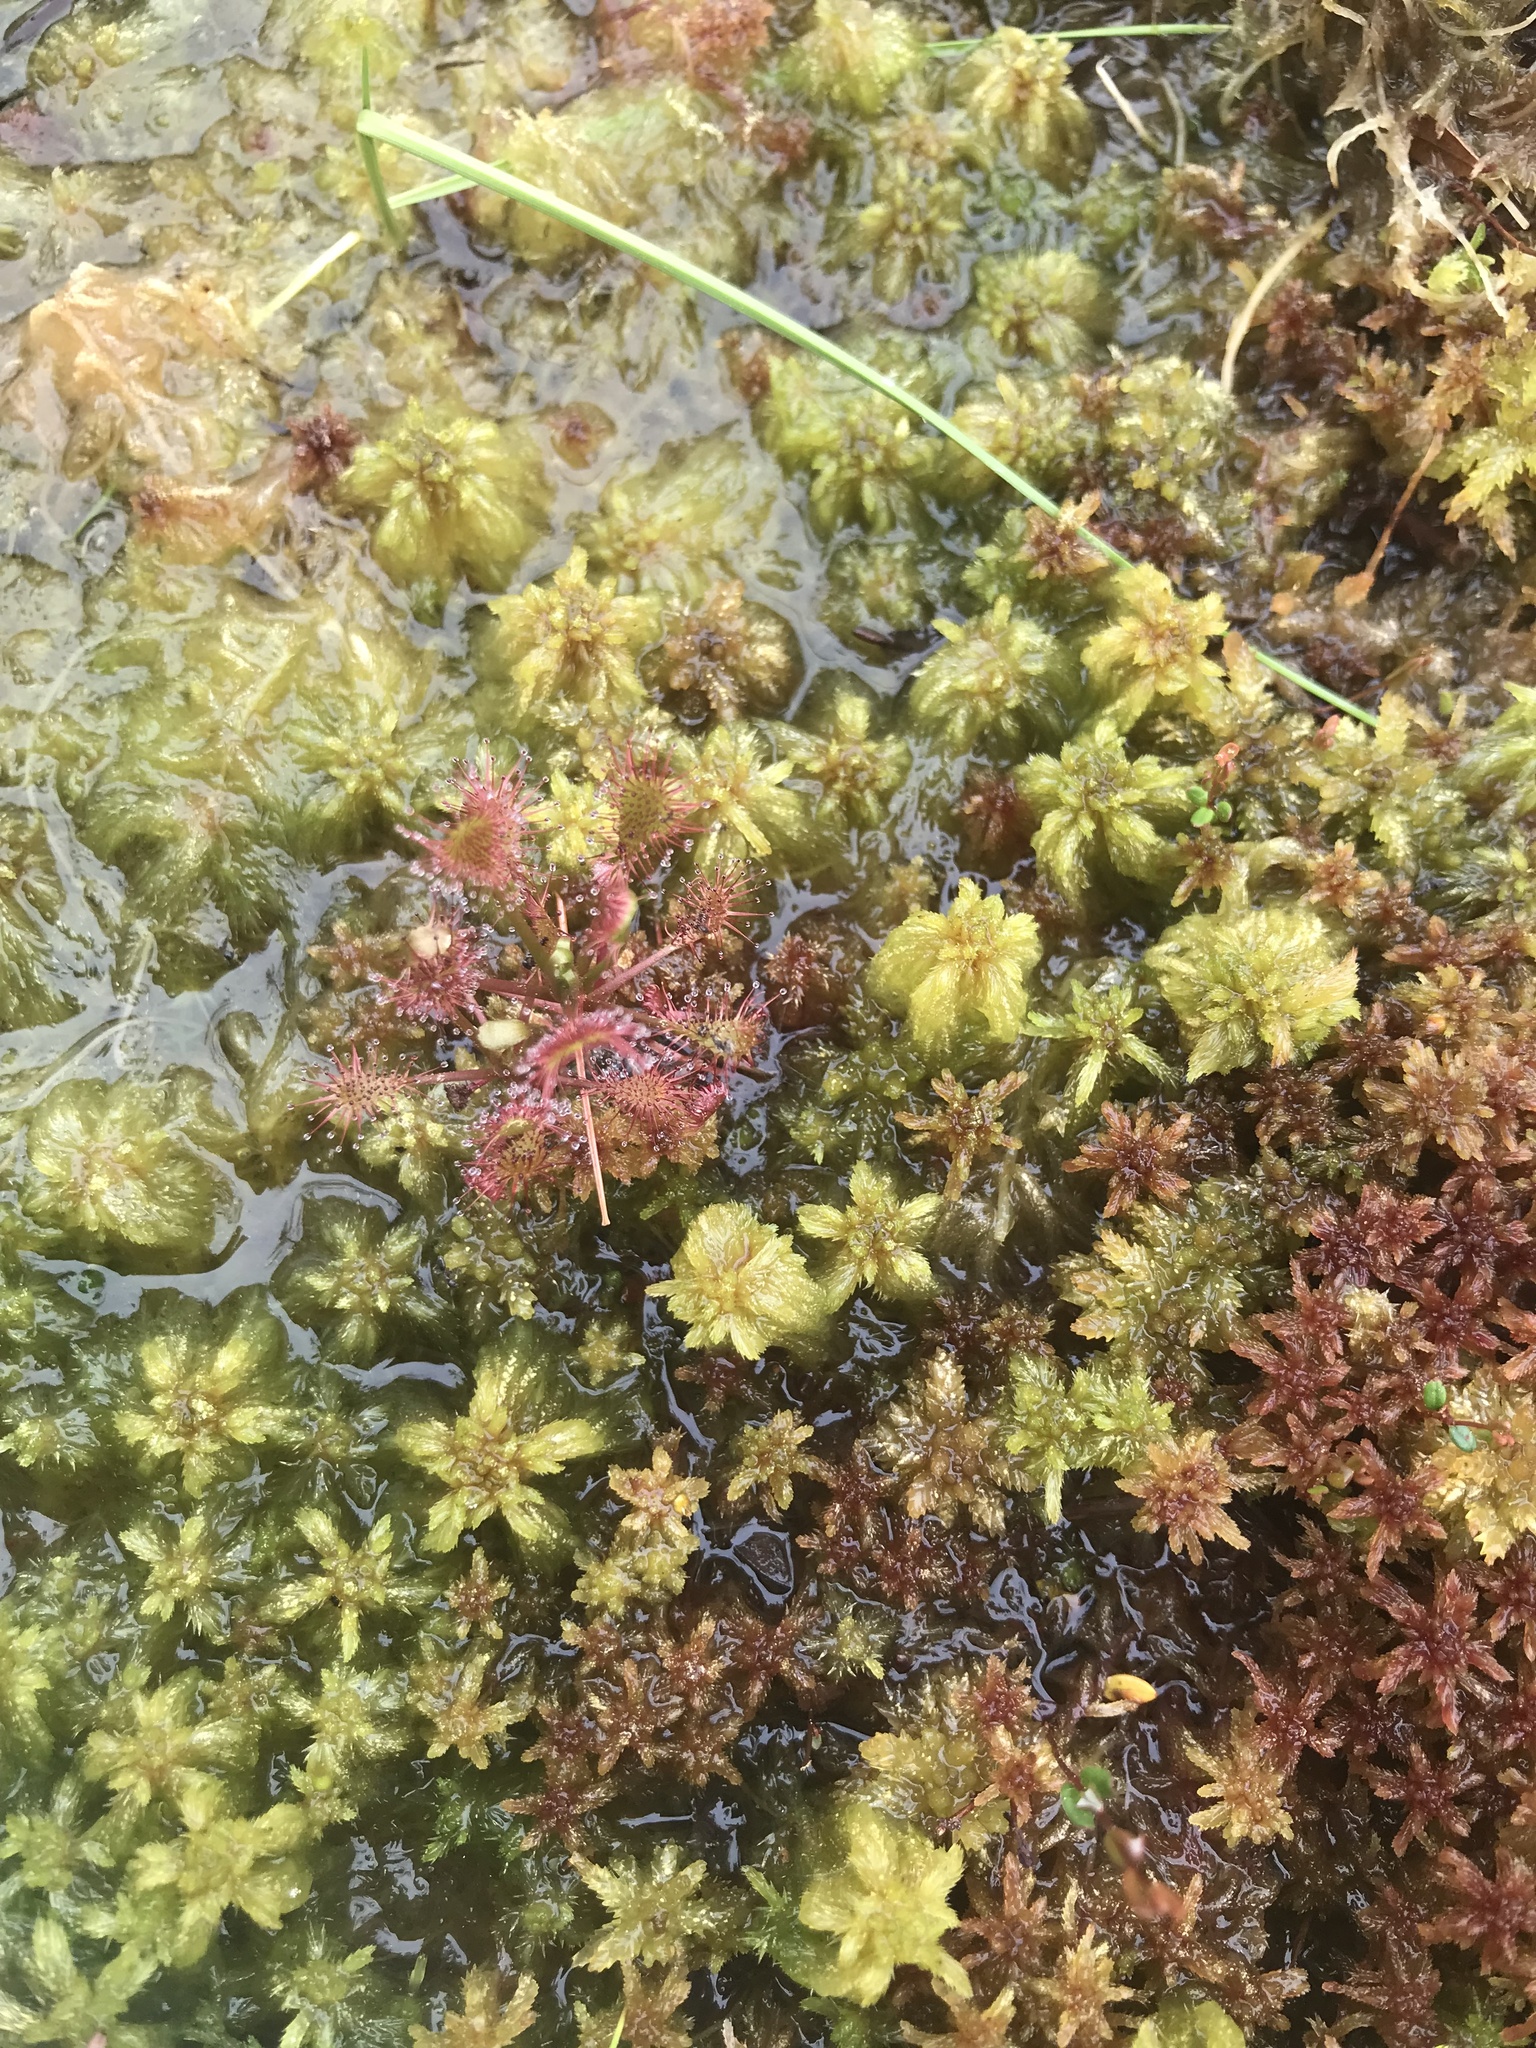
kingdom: Plantae
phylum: Tracheophyta
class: Magnoliopsida
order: Caryophyllales
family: Droseraceae
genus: Drosera
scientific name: Drosera intermedia
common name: Oblong-leaved sundew
